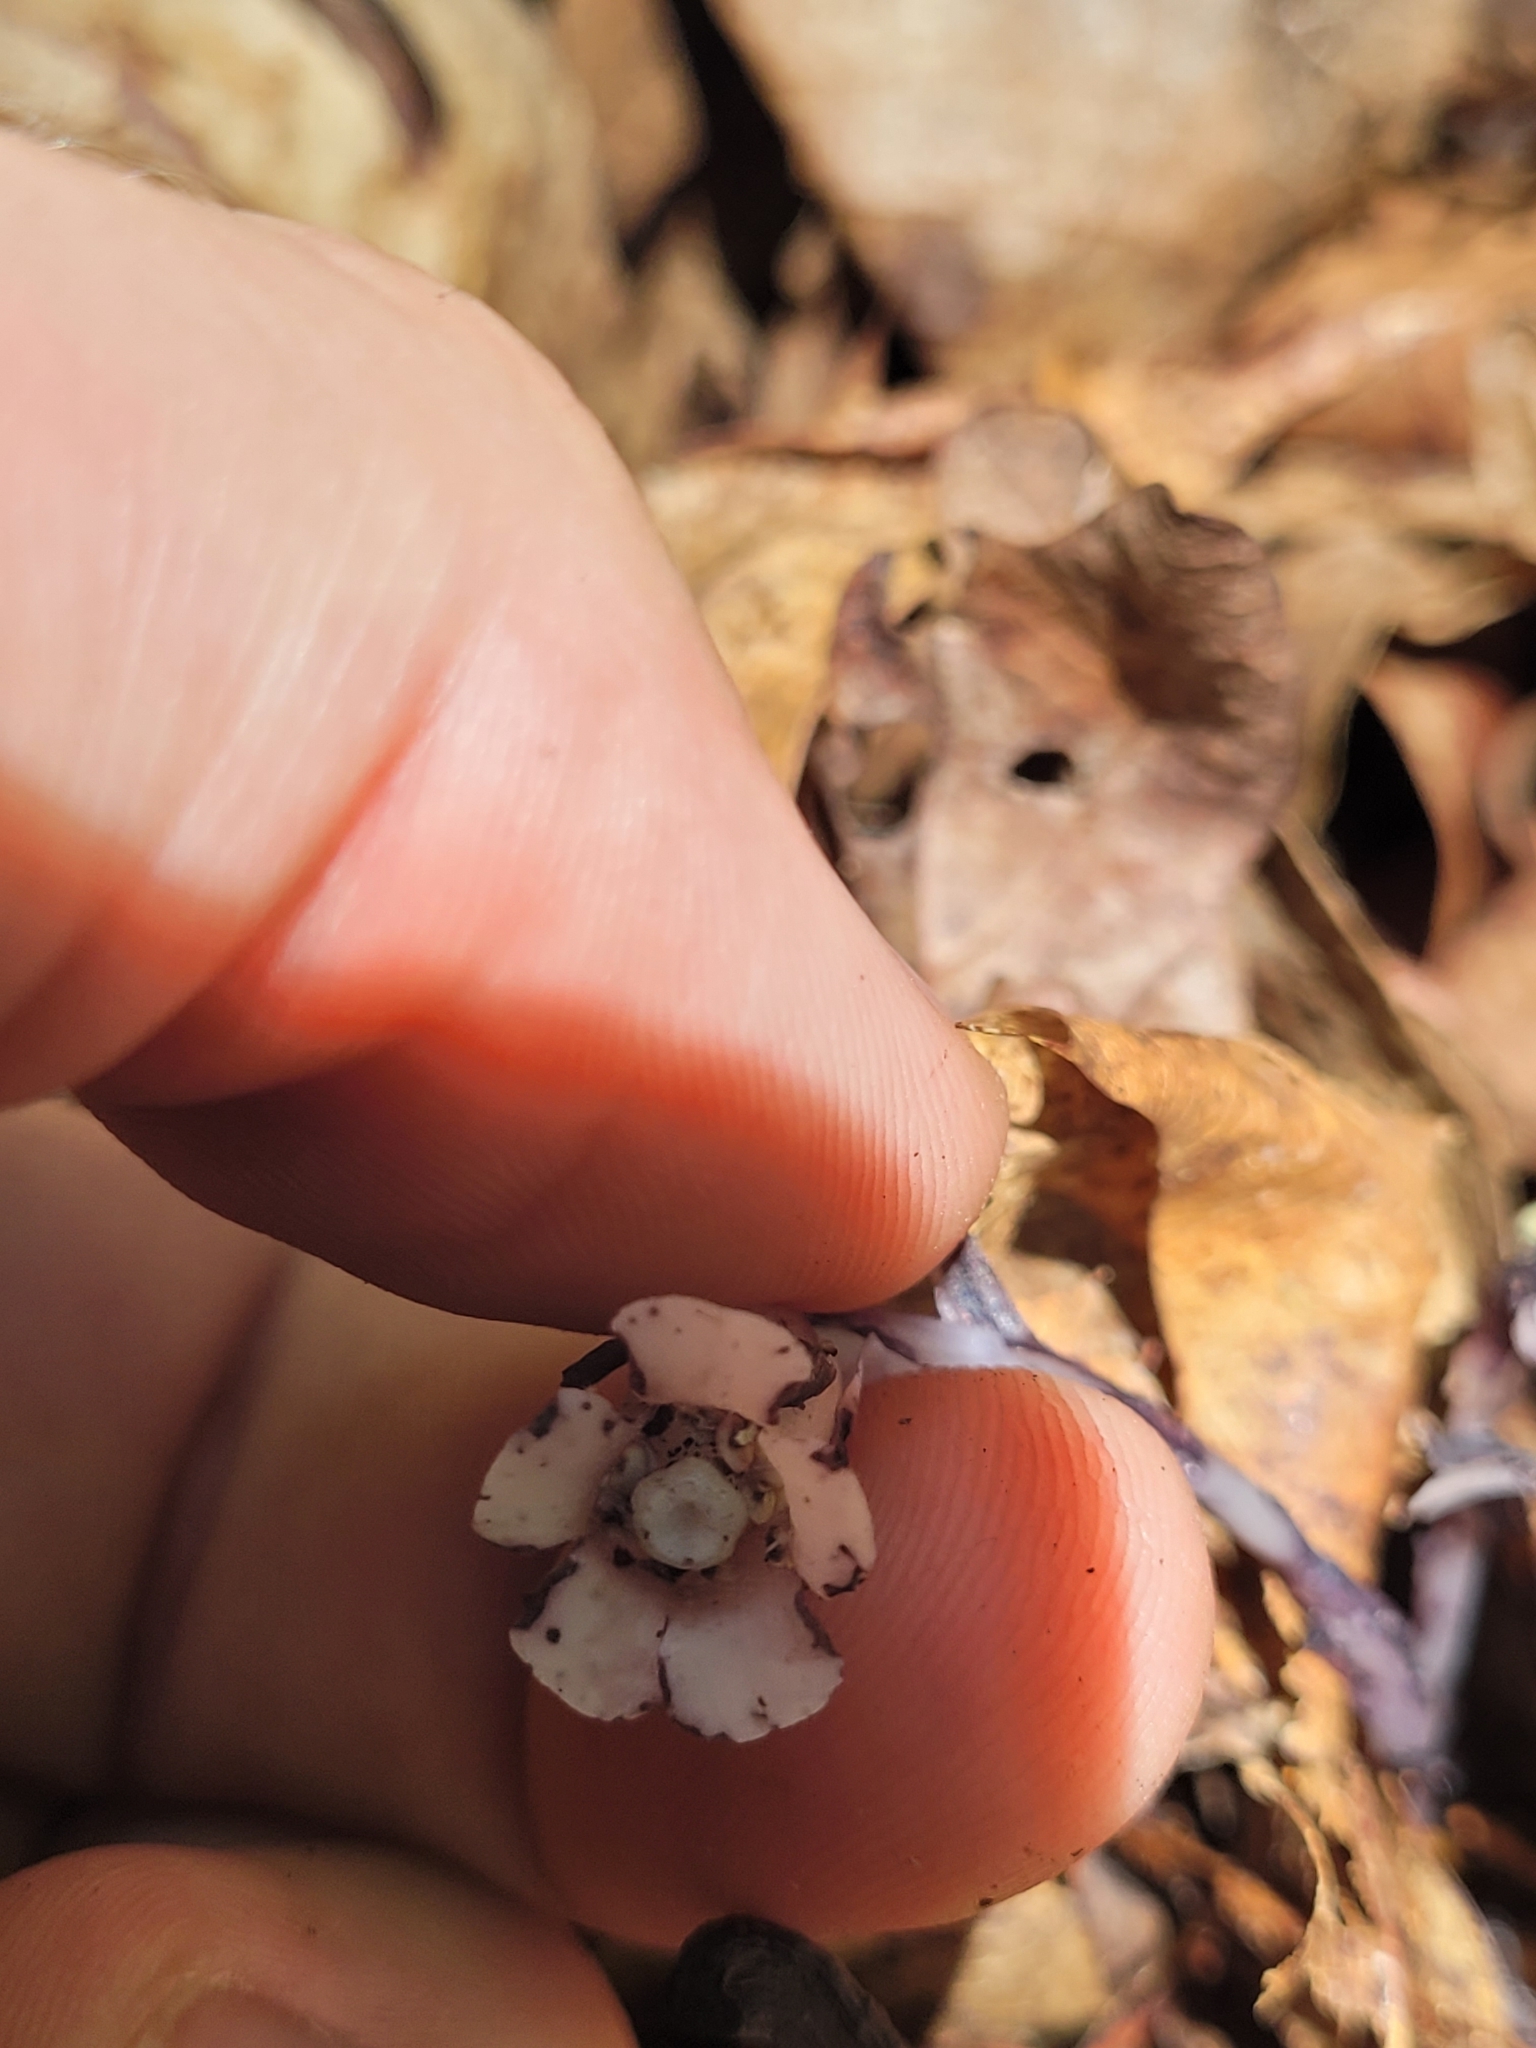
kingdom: Plantae
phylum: Tracheophyta
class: Magnoliopsida
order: Ericales
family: Ericaceae
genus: Monotropa
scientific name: Monotropa uniflora
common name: Convulsion root
